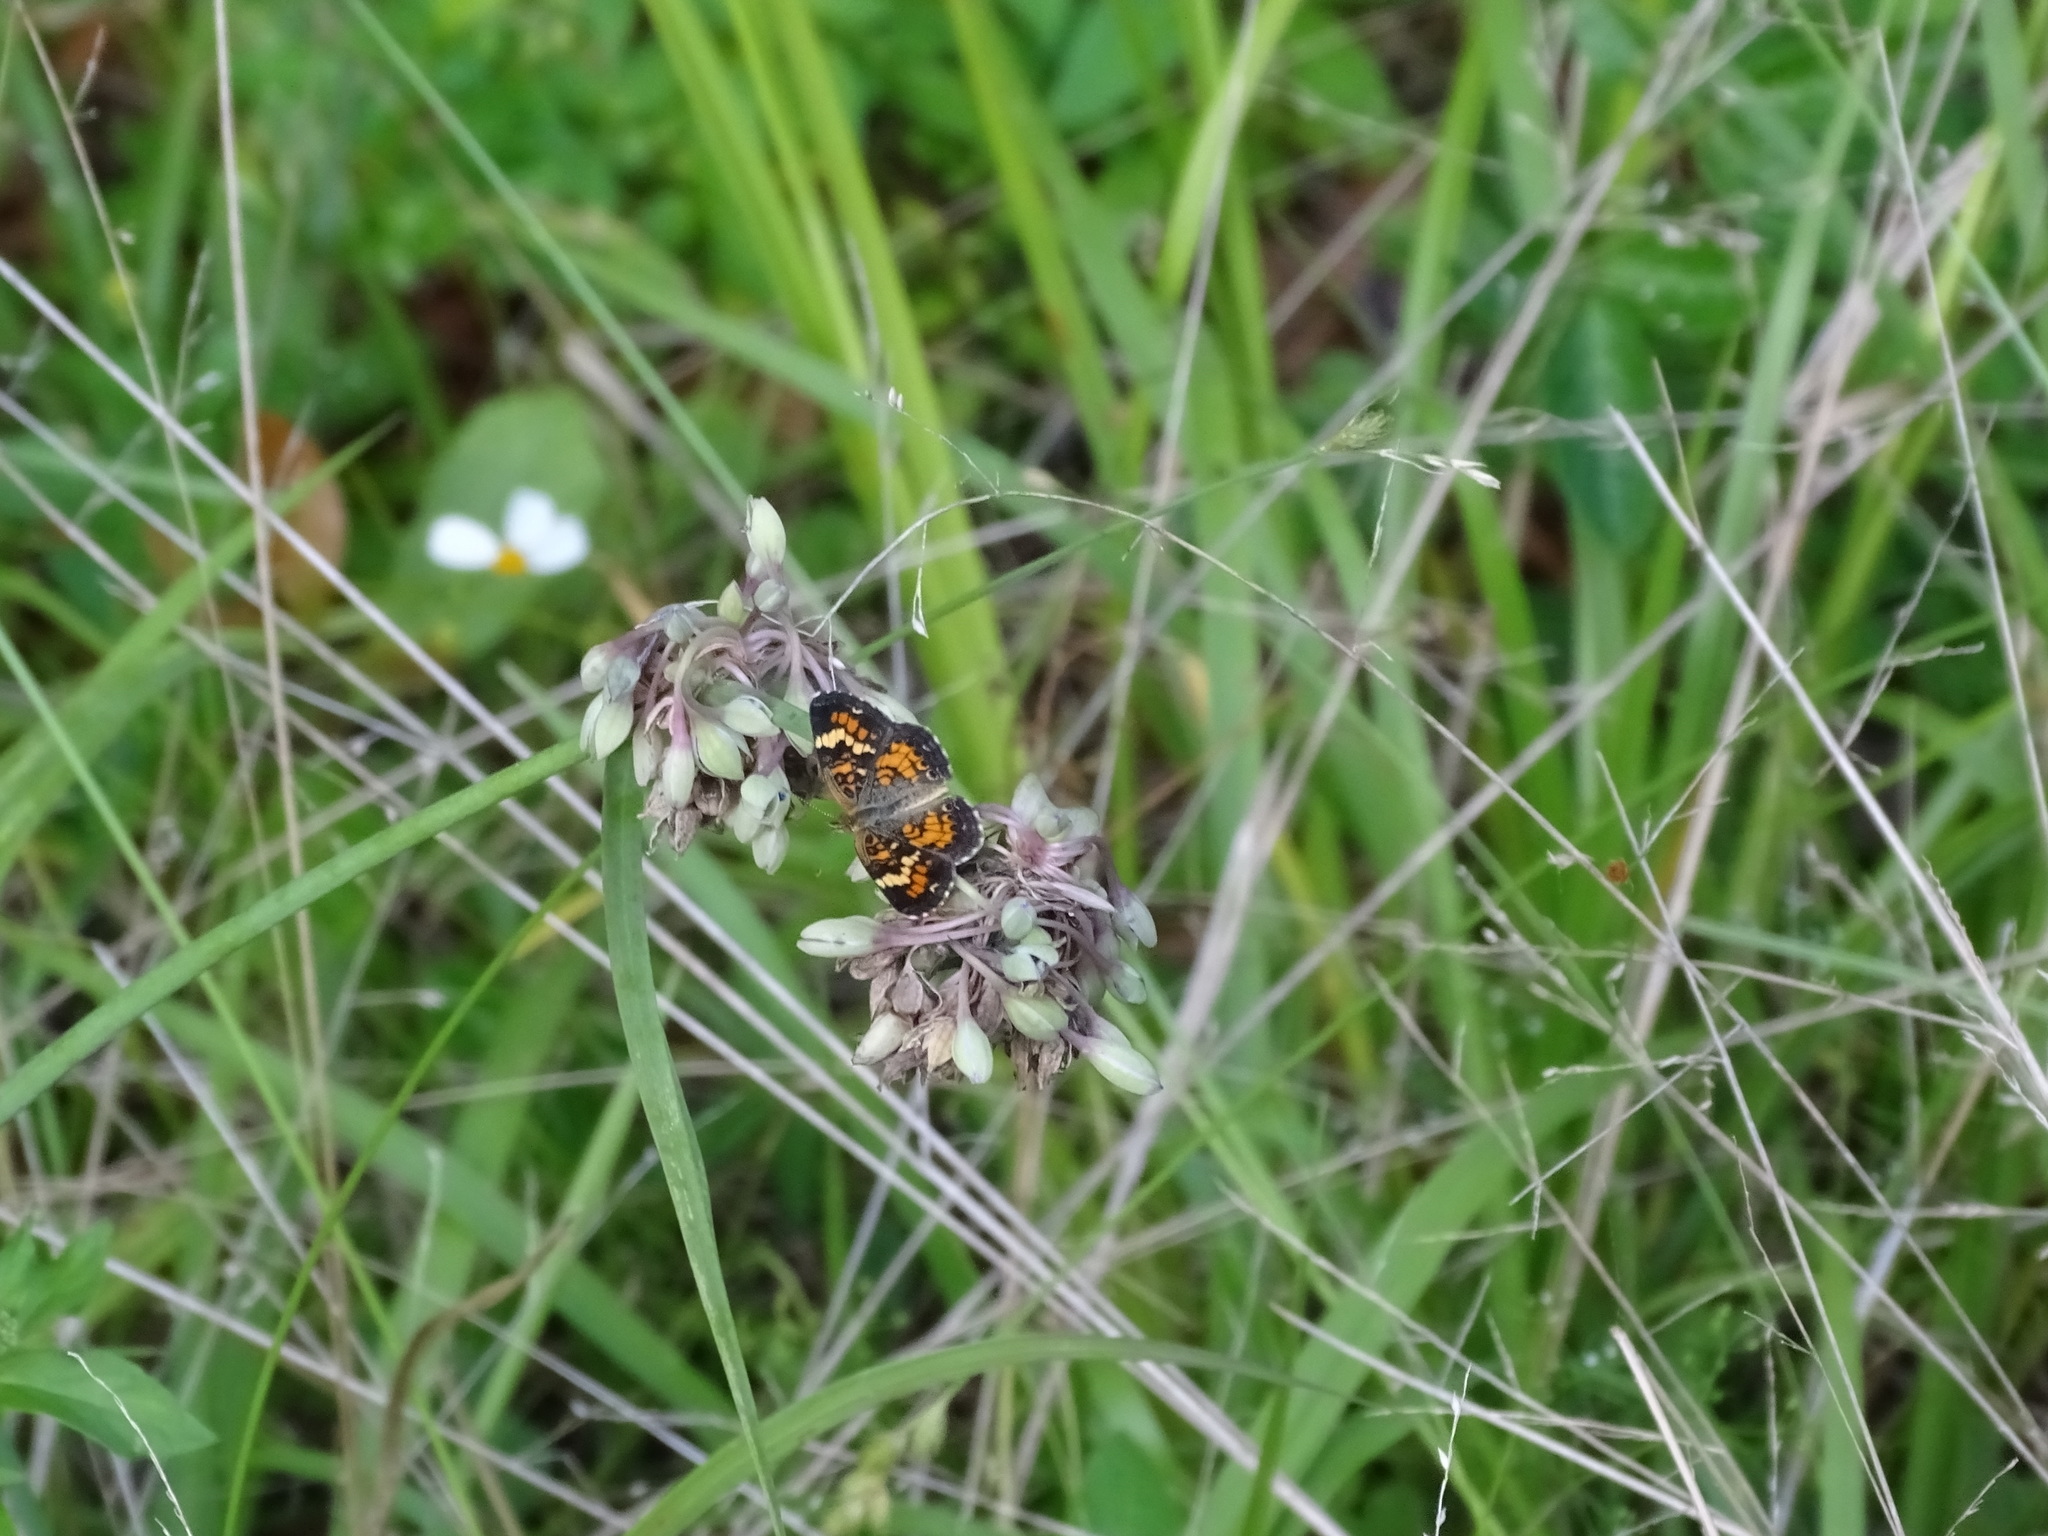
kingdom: Animalia
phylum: Arthropoda
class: Insecta
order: Lepidoptera
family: Nymphalidae
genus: Phyciodes
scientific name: Phyciodes phaon
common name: Phaon crescent
